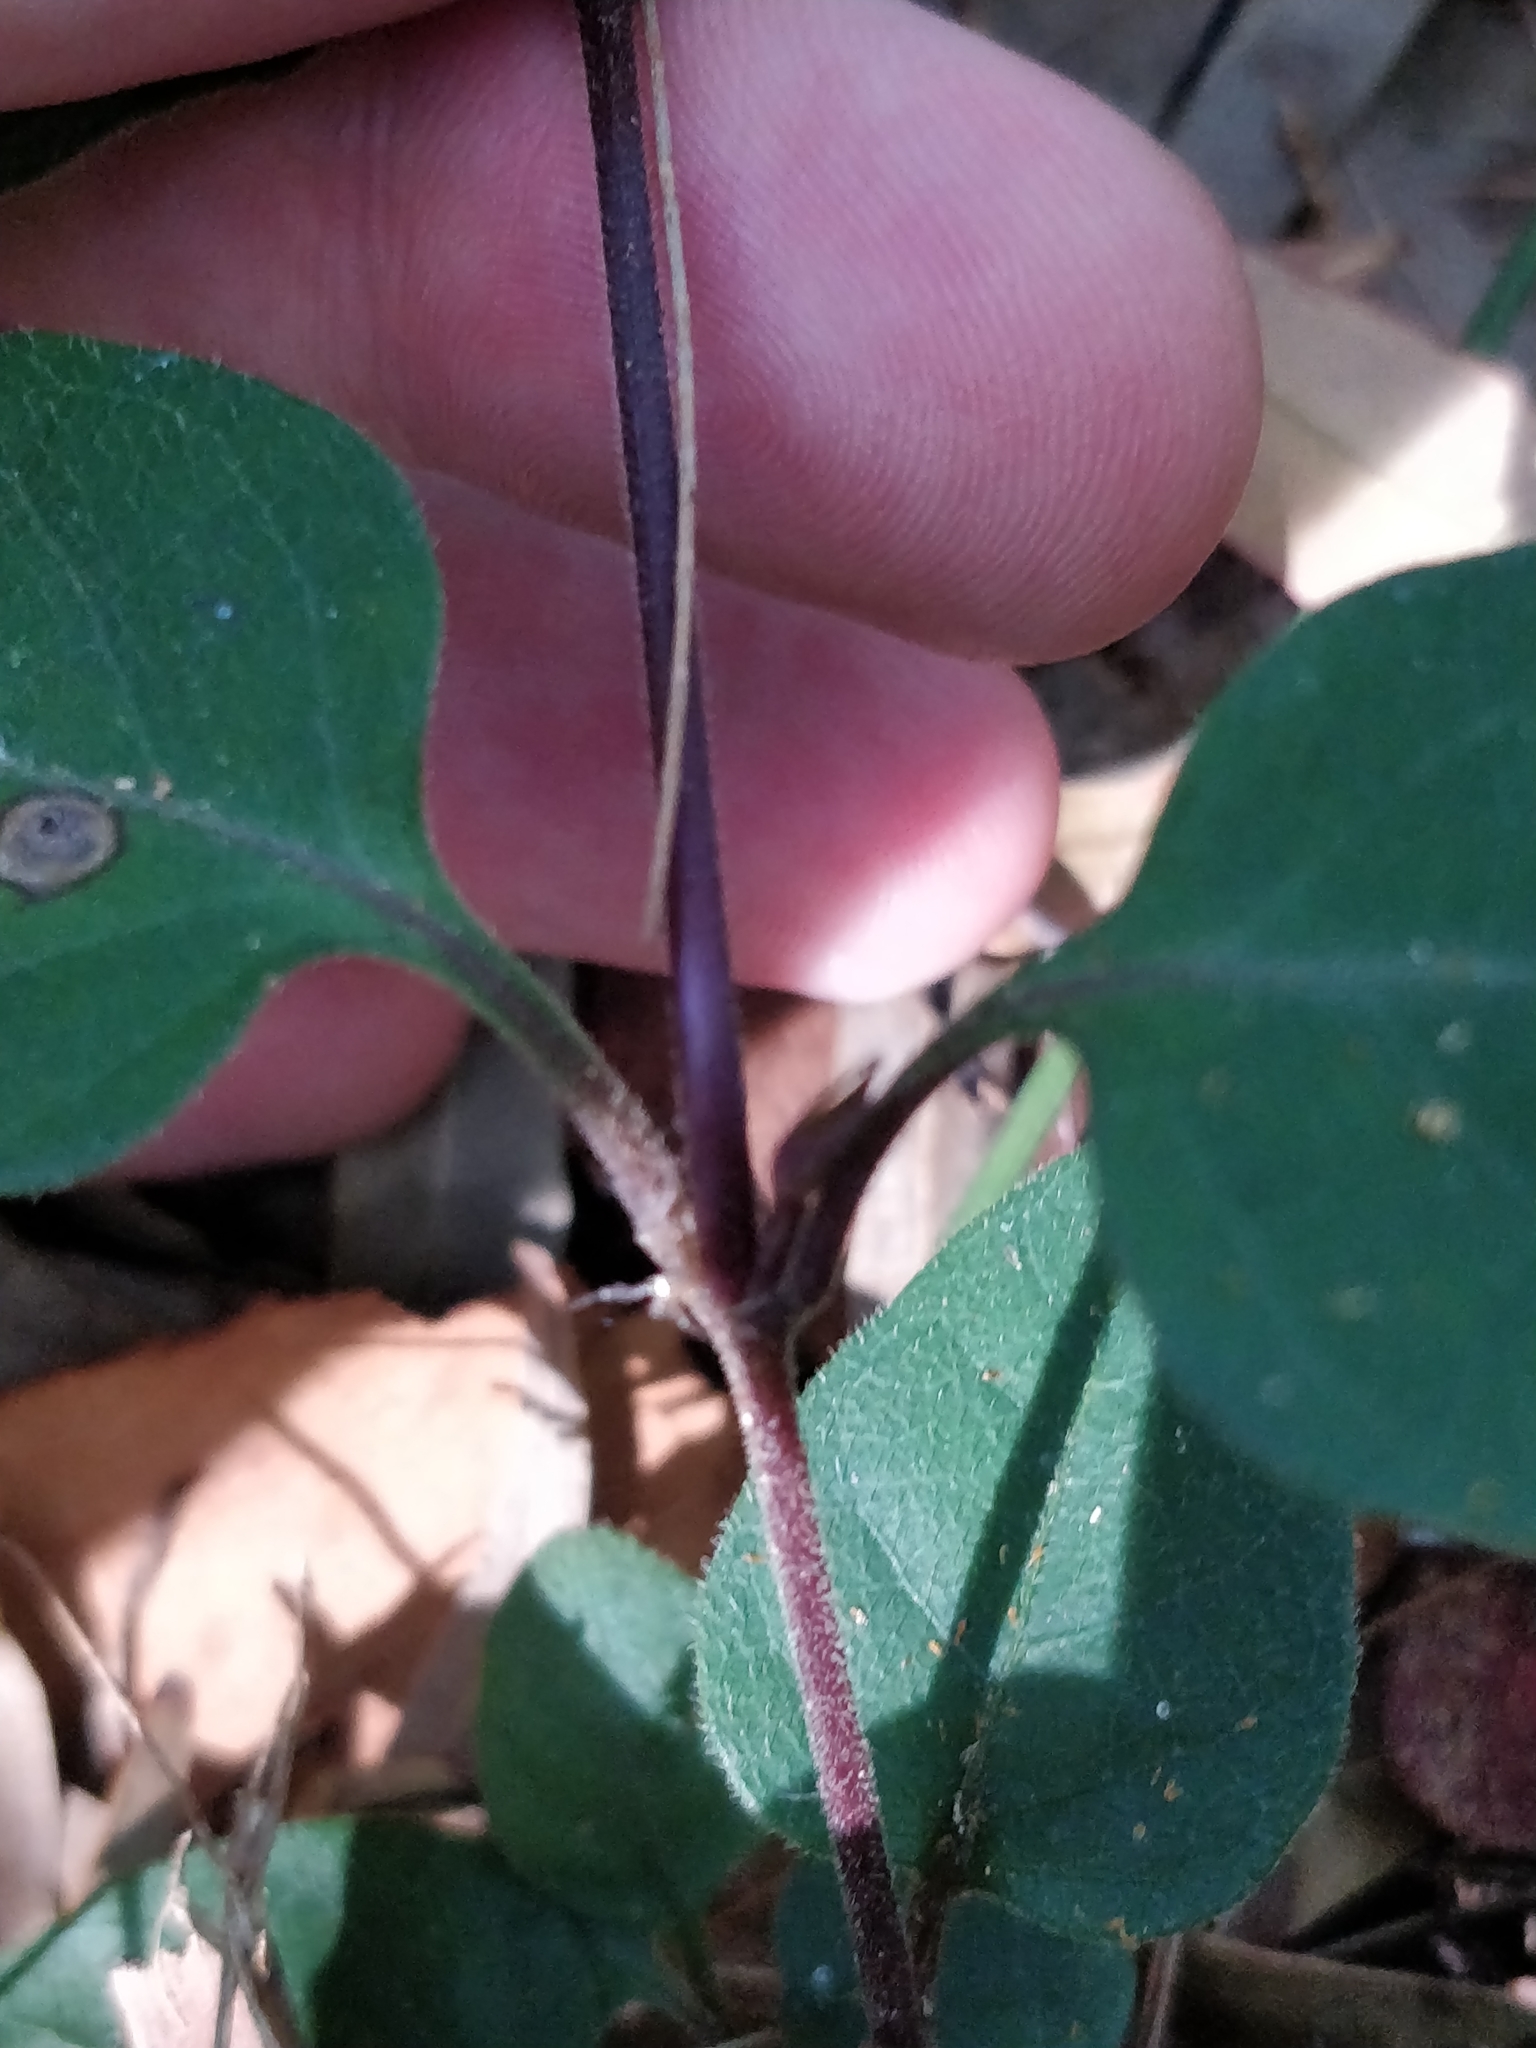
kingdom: Plantae
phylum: Tracheophyta
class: Magnoliopsida
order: Lamiales
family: Acanthaceae
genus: Pseuderanthemum
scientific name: Pseuderanthemum variabile
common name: Night and afternoon
